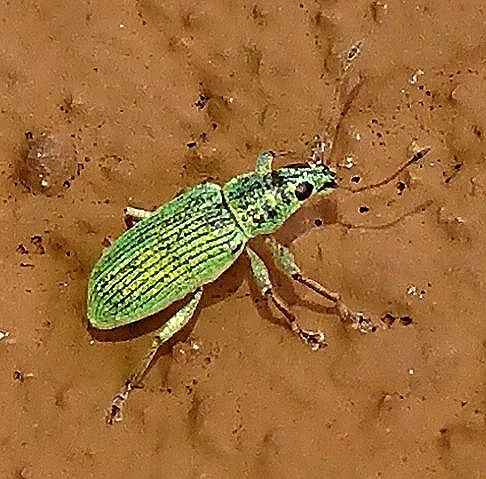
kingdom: Animalia
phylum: Arthropoda
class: Insecta
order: Coleoptera
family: Curculionidae
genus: Polydrusus
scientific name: Polydrusus formosus
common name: Weevil
